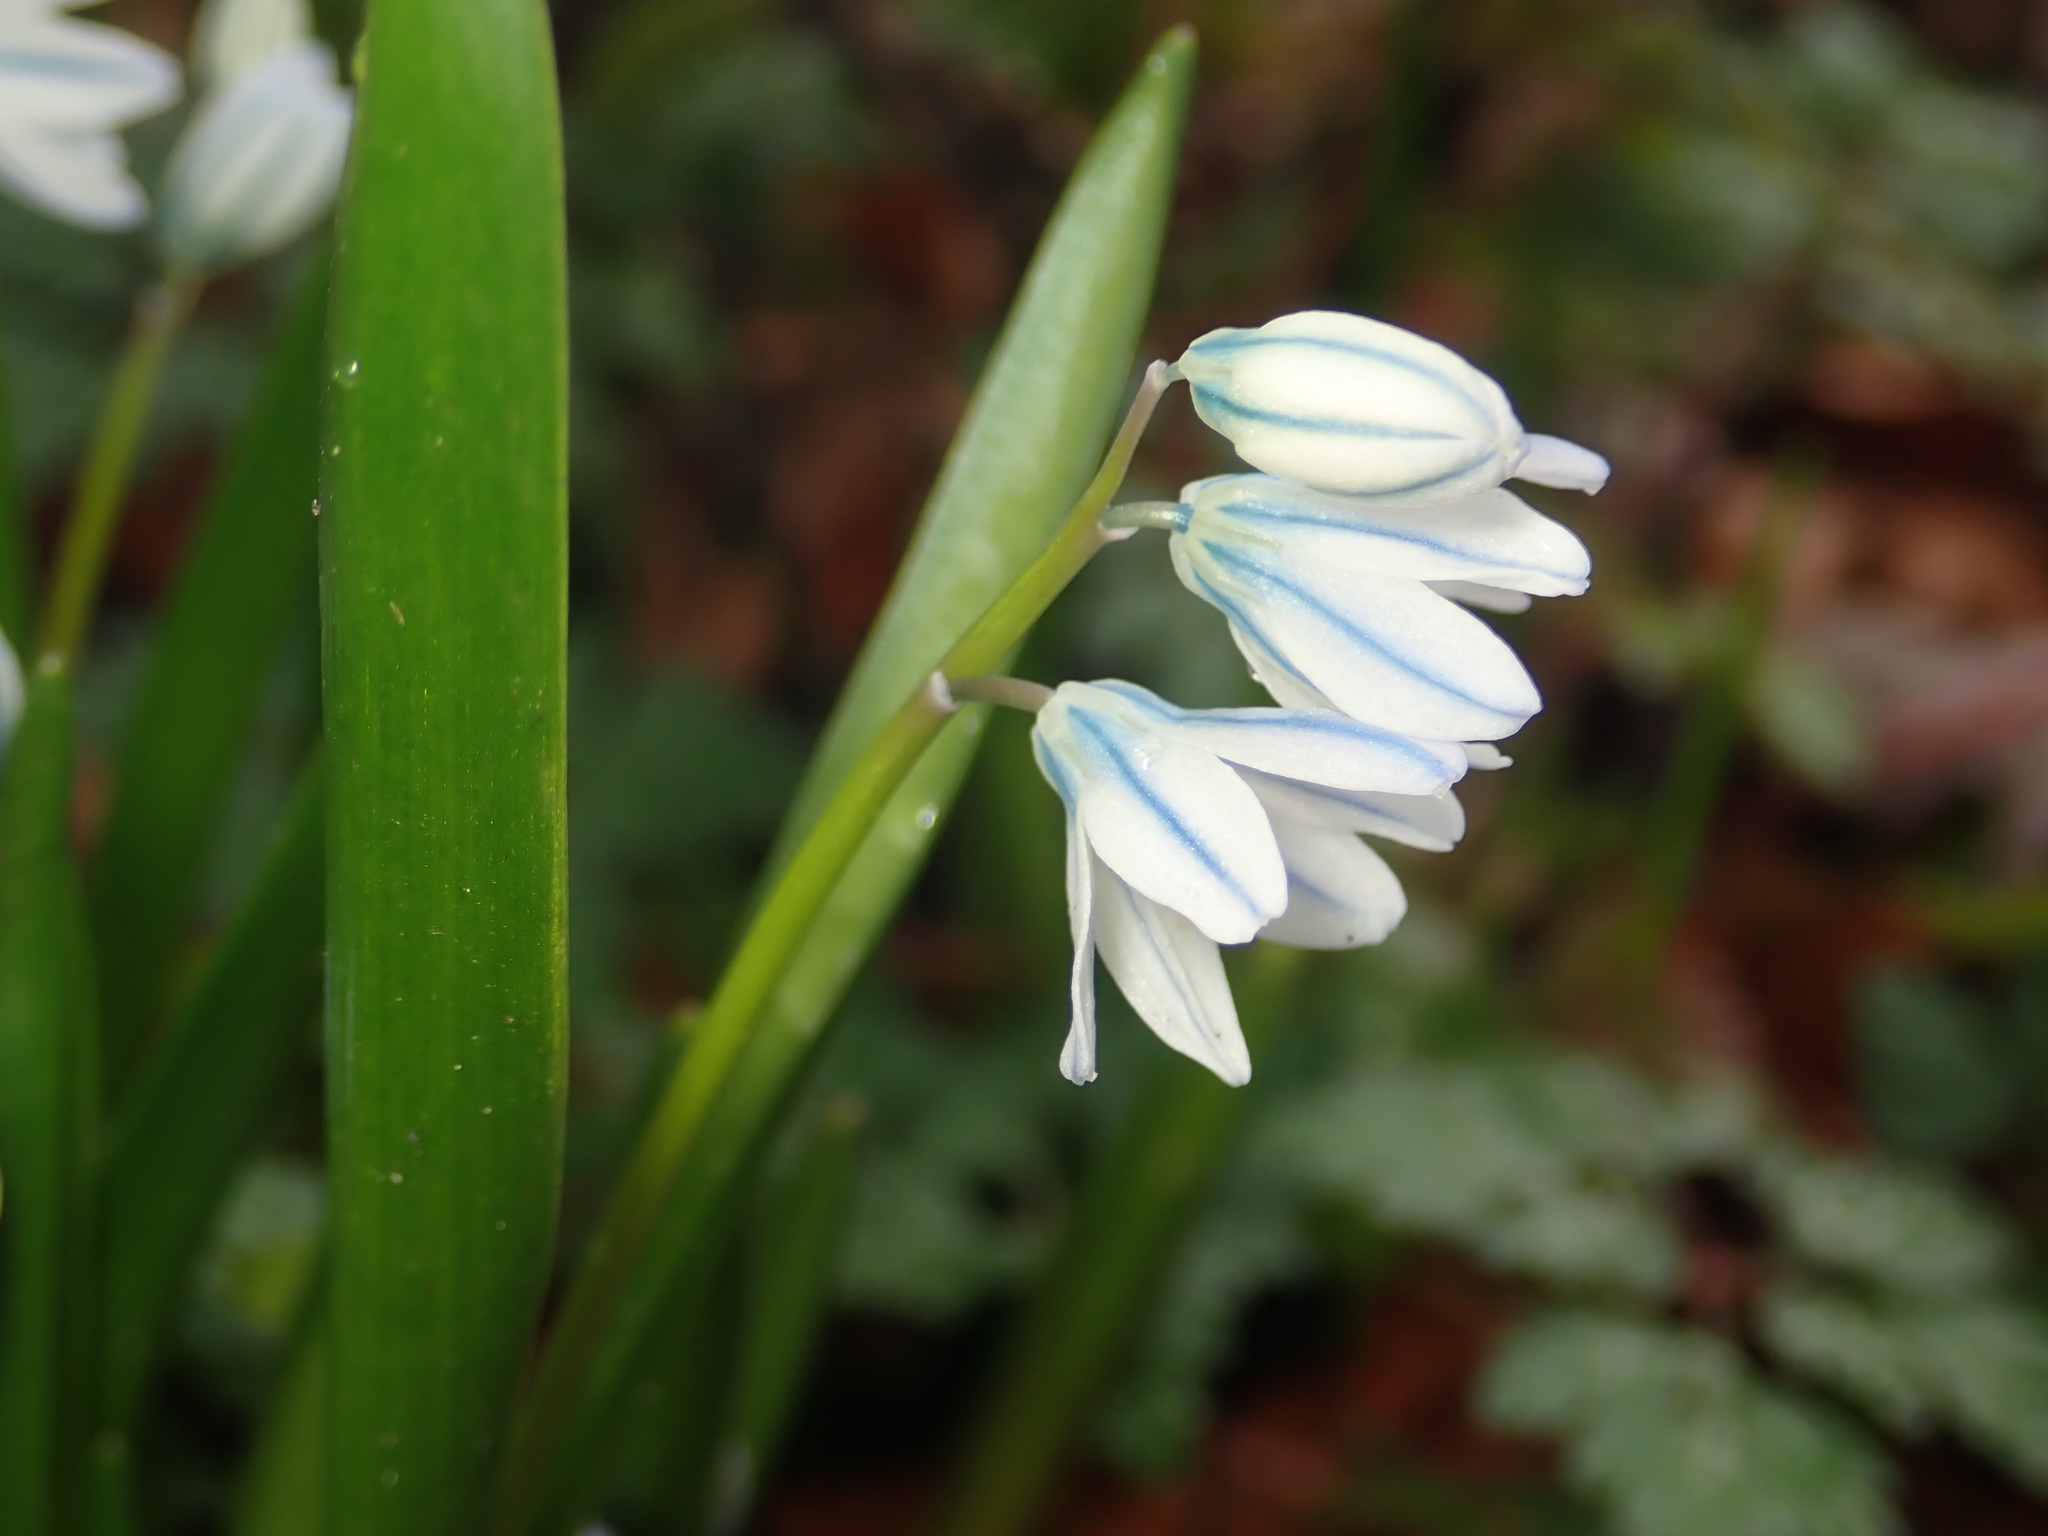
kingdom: Plantae
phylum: Tracheophyta
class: Liliopsida
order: Asparagales
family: Asparagaceae
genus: Puschkinia
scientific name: Puschkinia scilloides
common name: Striped squill
